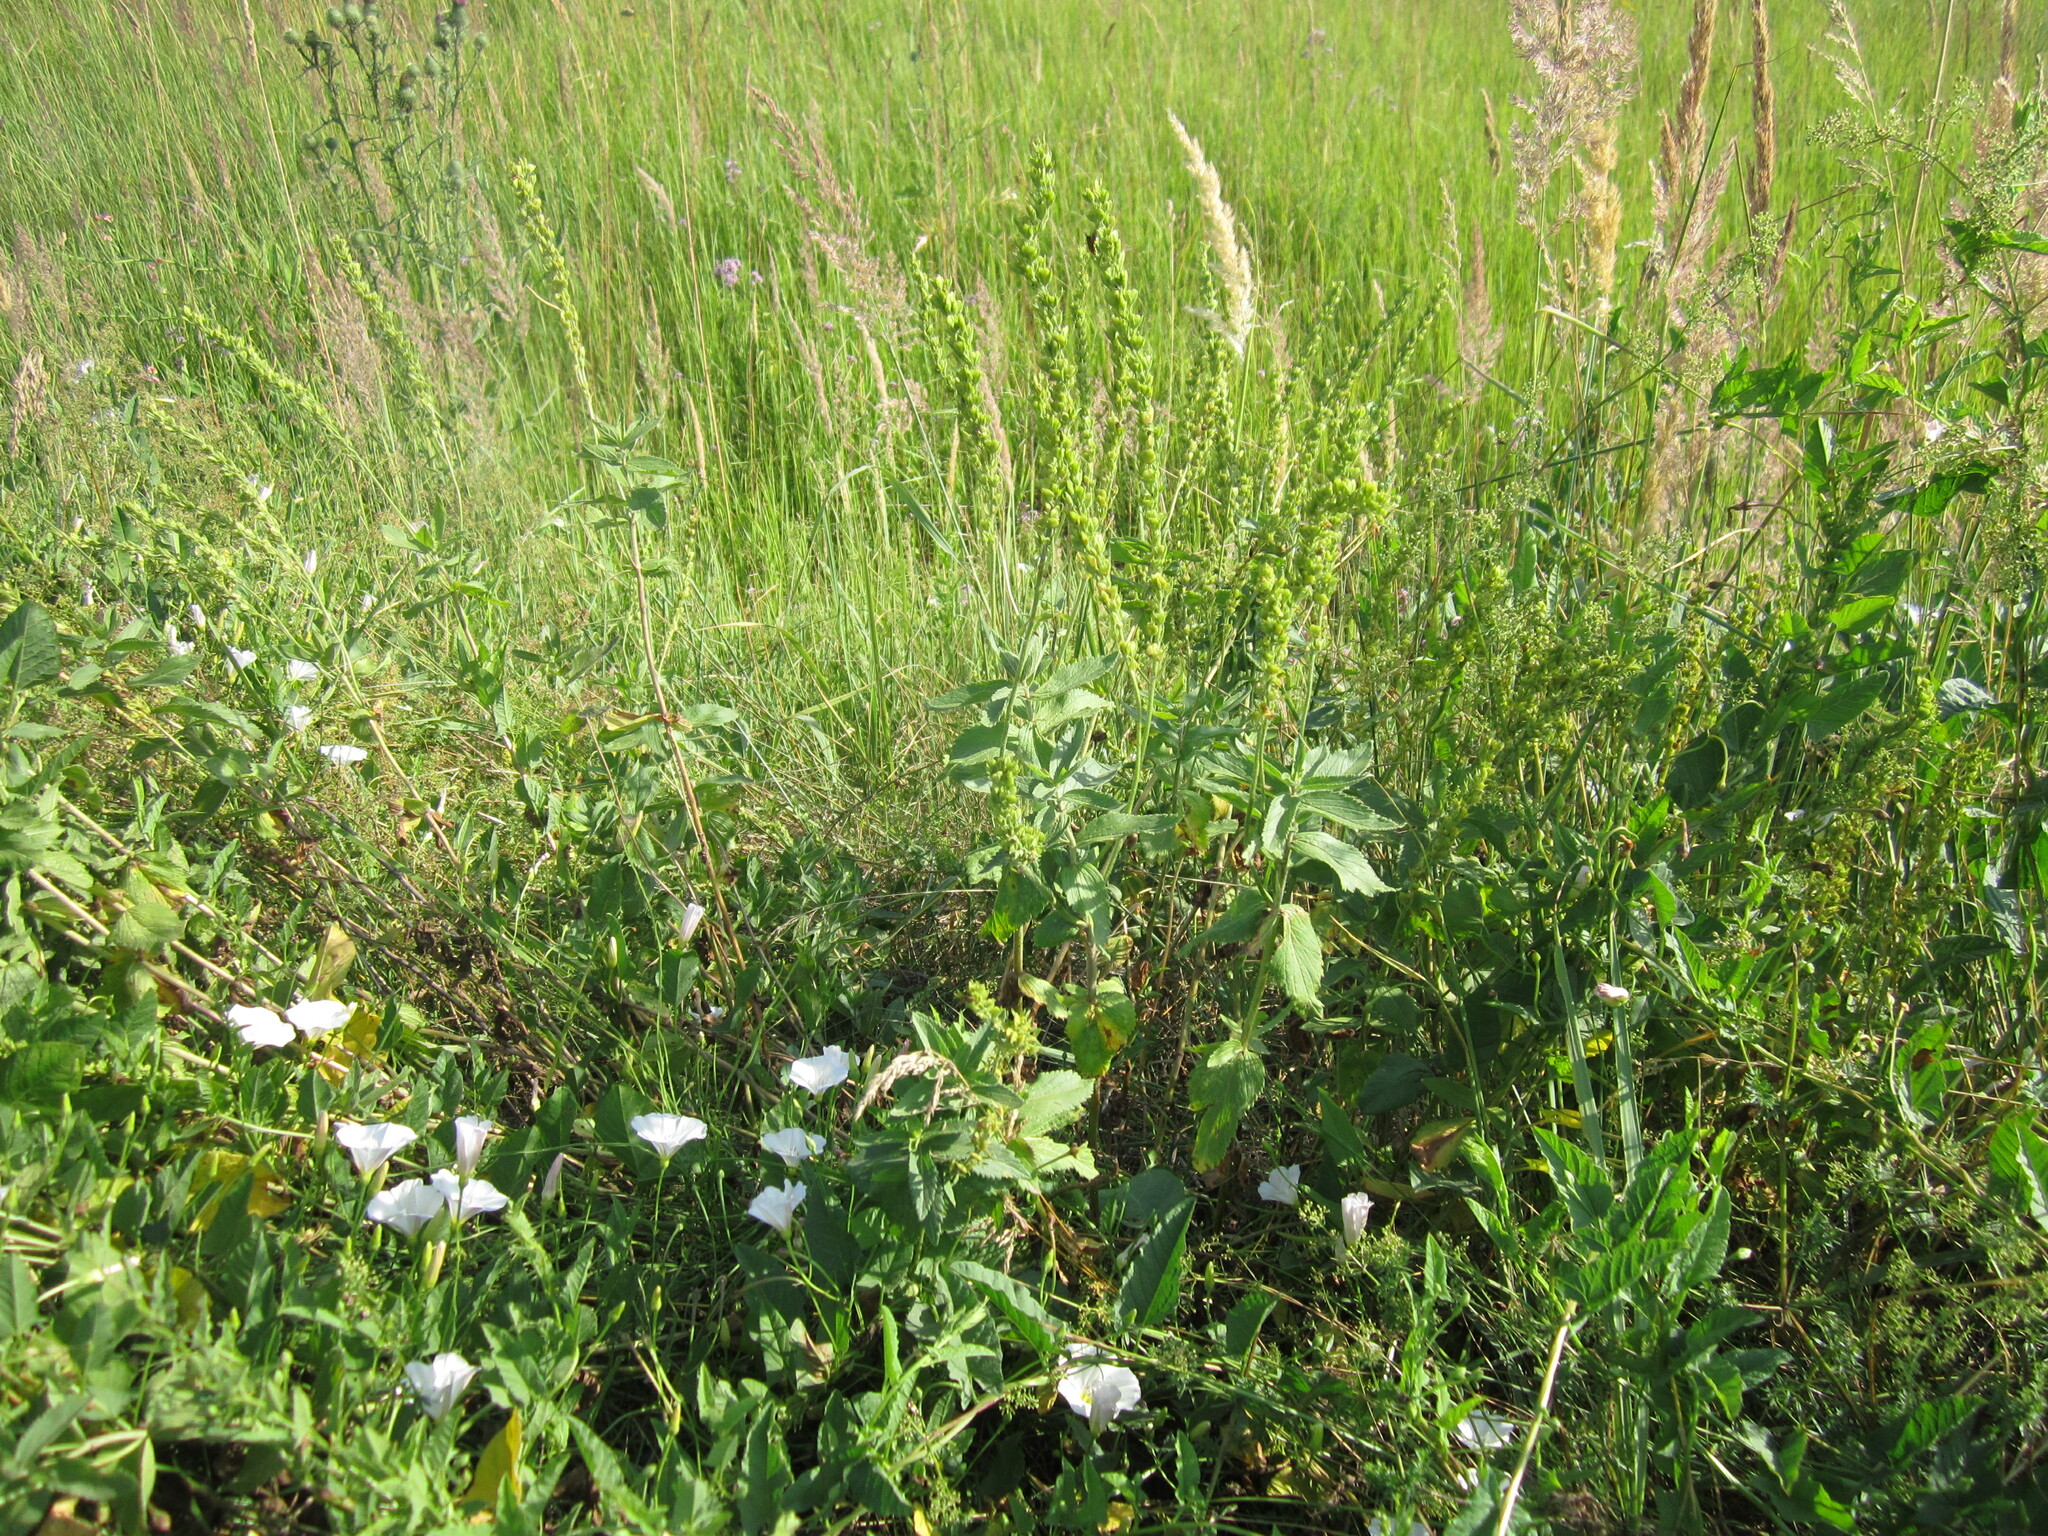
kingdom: Plantae
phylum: Tracheophyta
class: Magnoliopsida
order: Lamiales
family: Plantaginaceae
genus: Veronica
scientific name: Veronica teucrium
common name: Large speedwell
